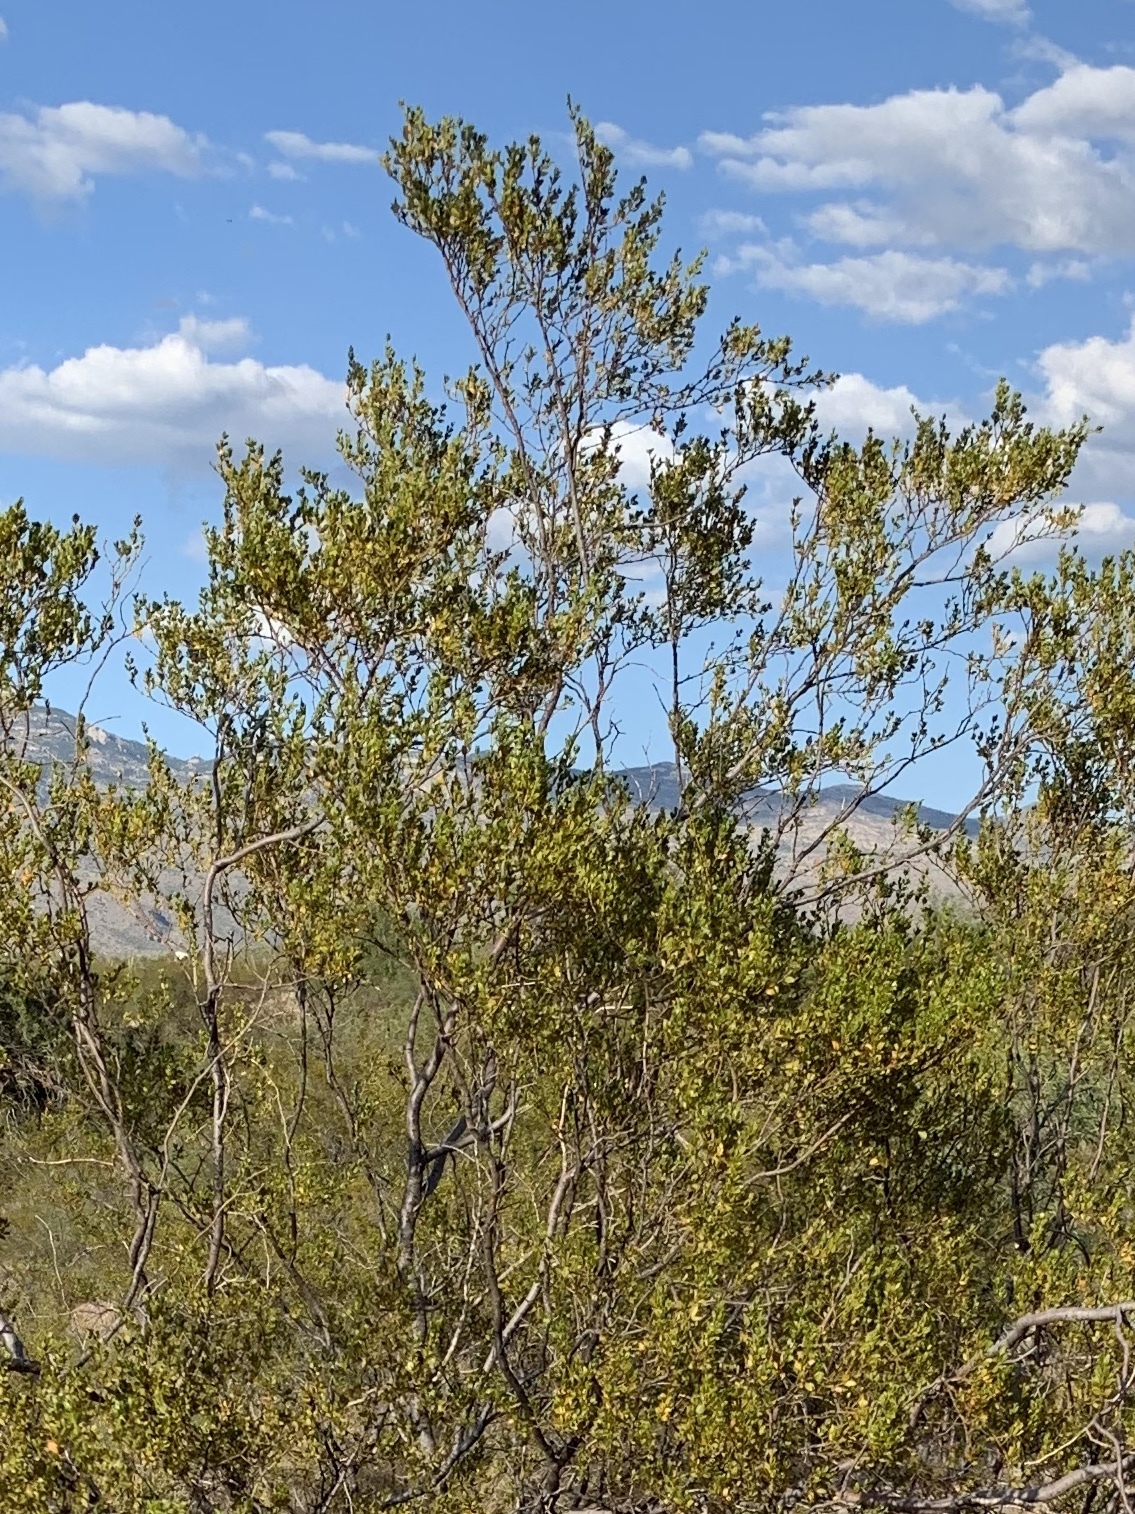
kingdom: Plantae
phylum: Tracheophyta
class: Magnoliopsida
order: Zygophyllales
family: Zygophyllaceae
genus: Larrea
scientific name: Larrea tridentata
